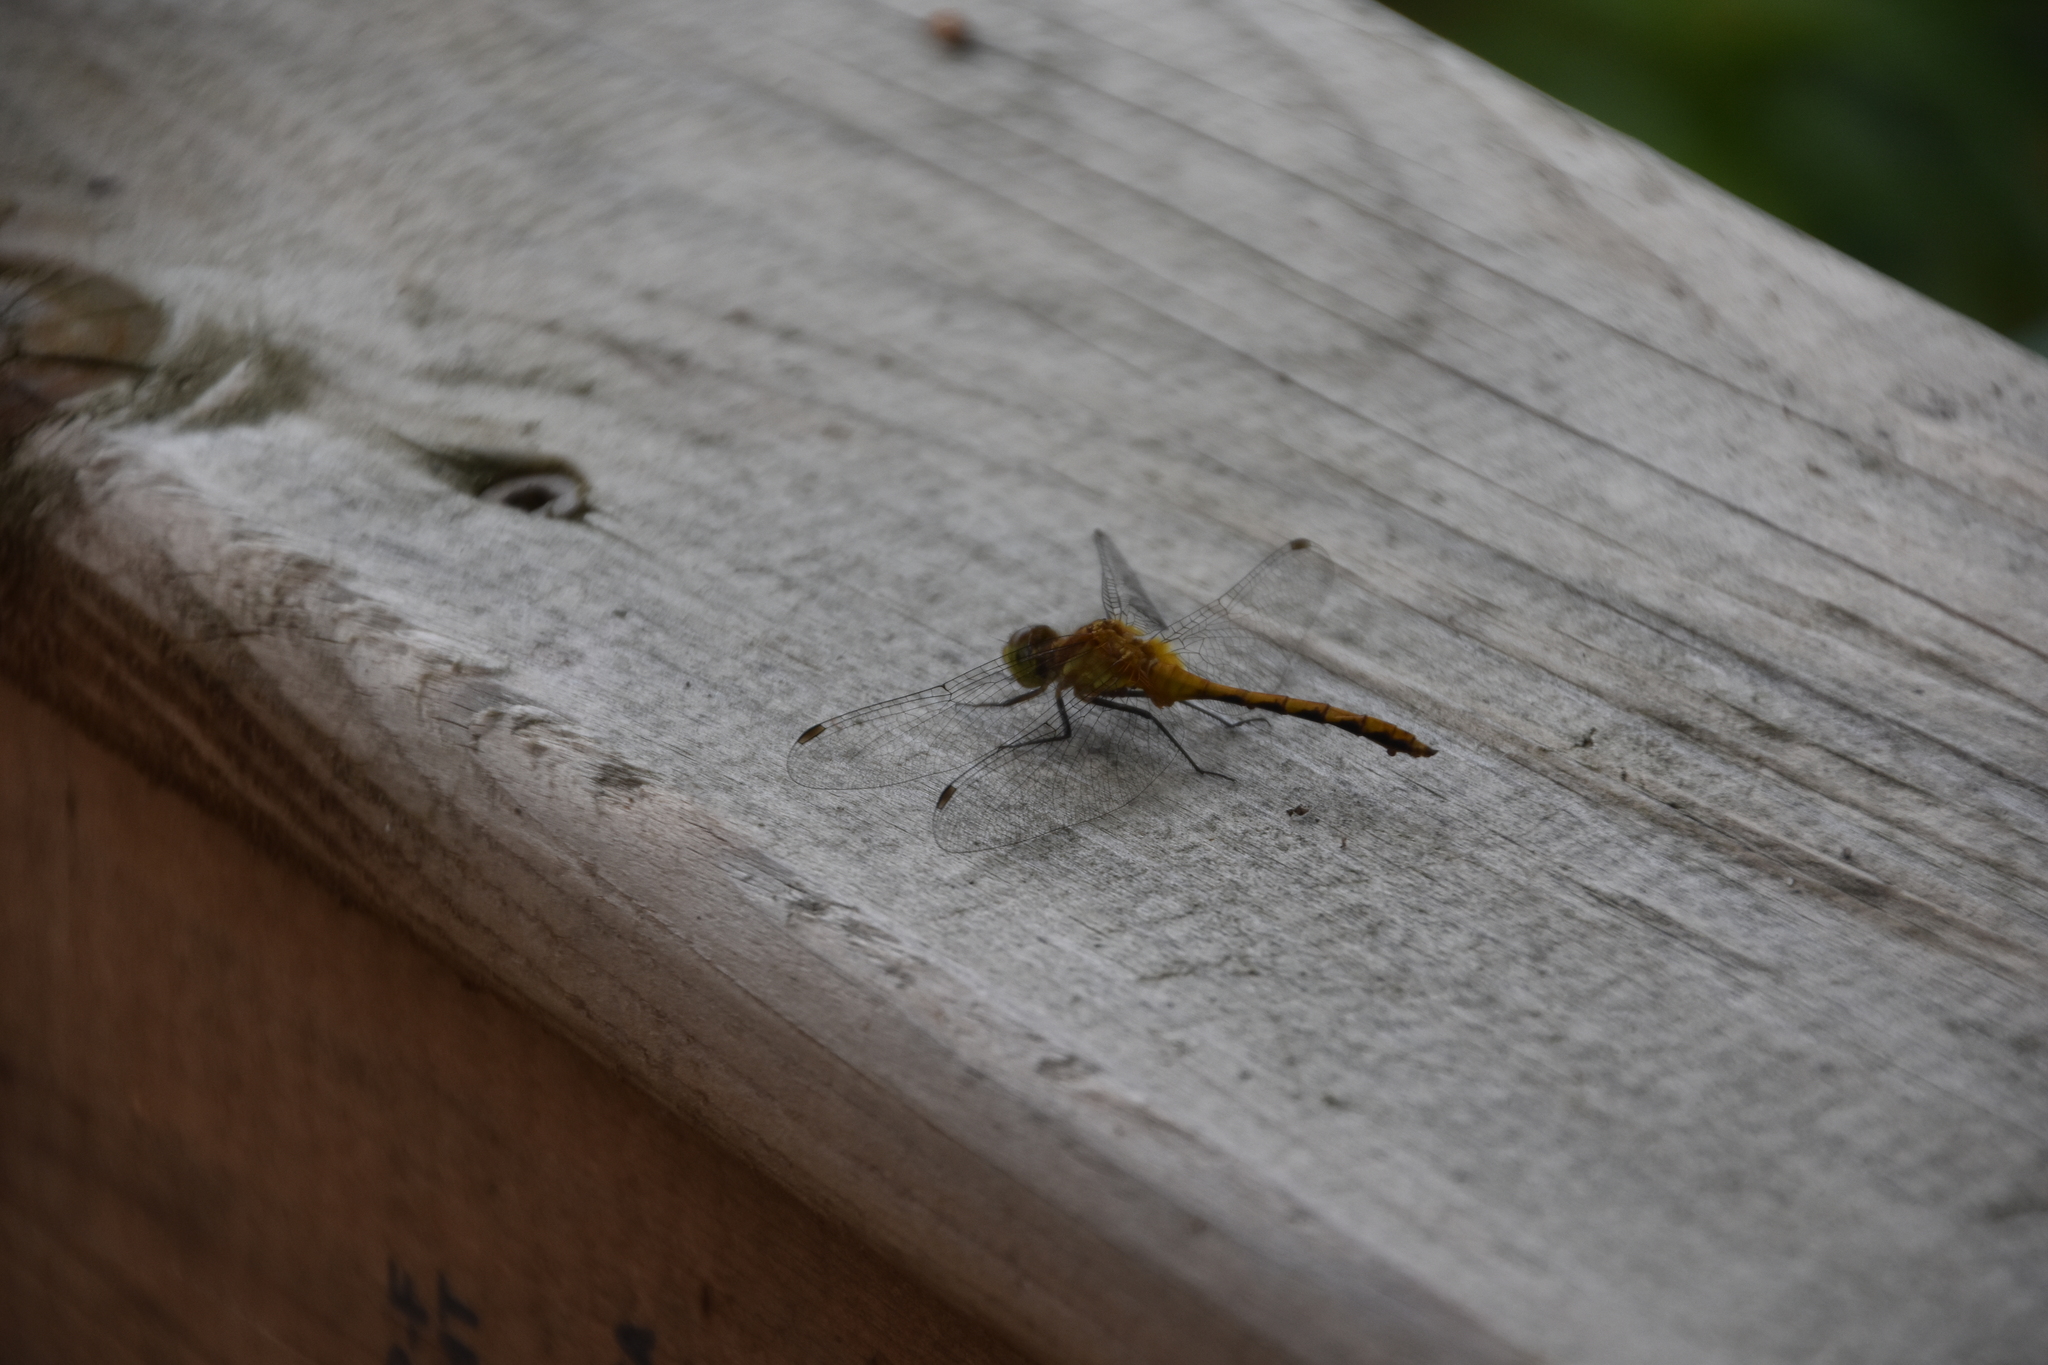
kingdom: Animalia
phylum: Arthropoda
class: Insecta
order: Odonata
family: Libellulidae
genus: Sympetrum
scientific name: Sympetrum rubicundulum
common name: Ruby meadowhawk
